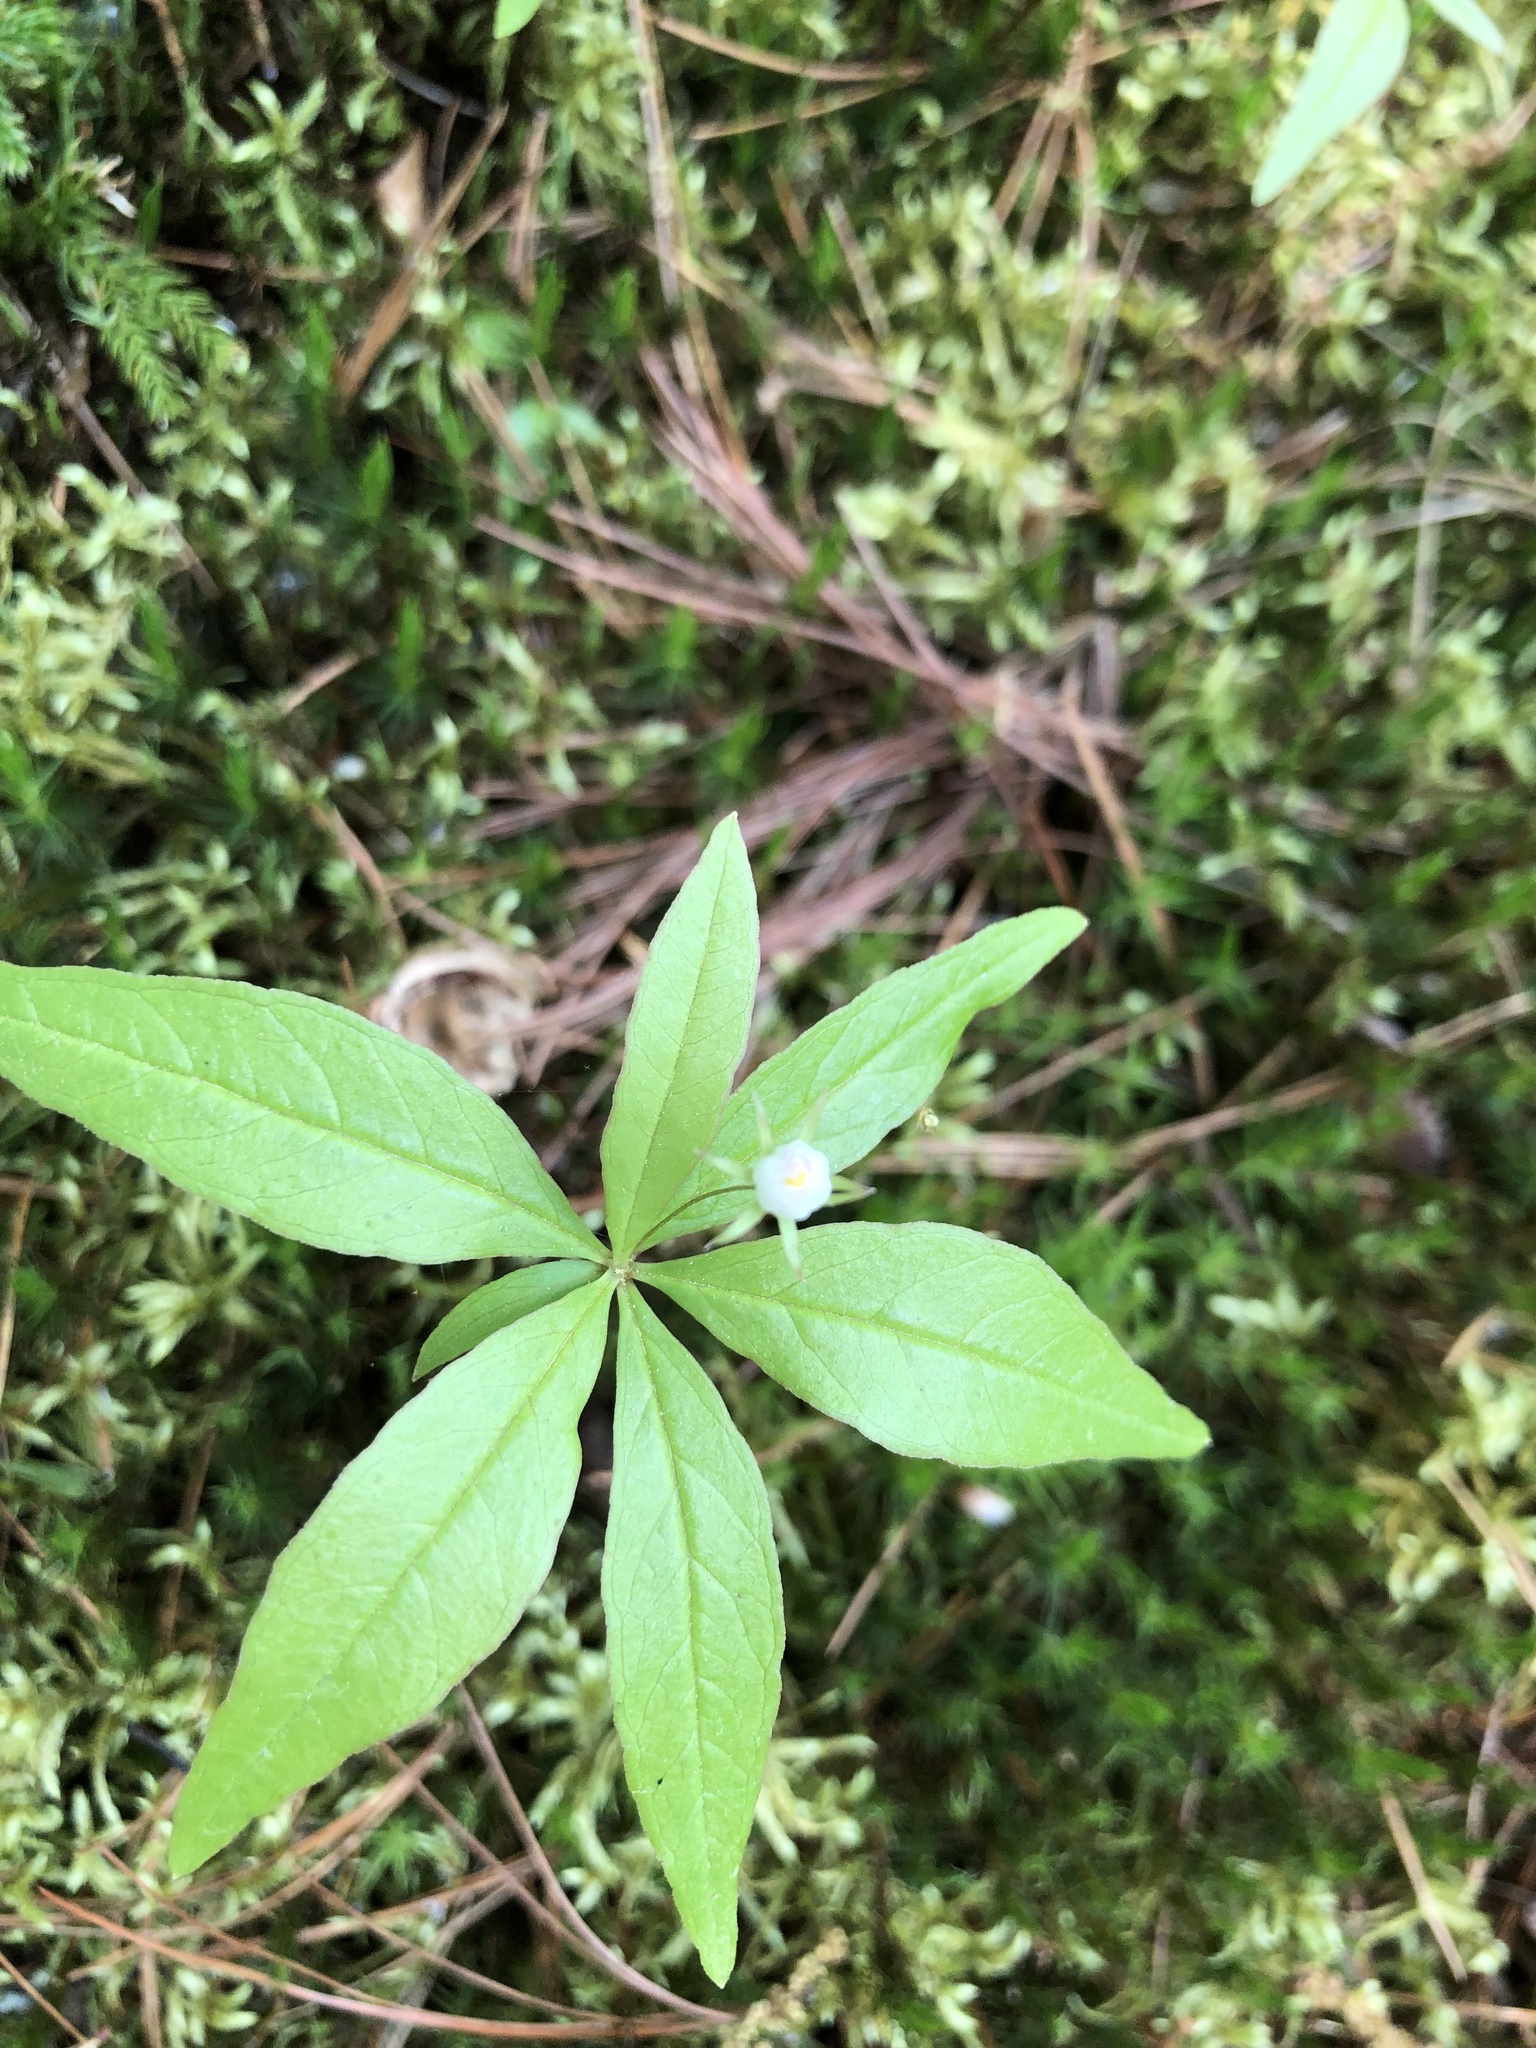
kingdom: Plantae
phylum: Tracheophyta
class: Magnoliopsida
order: Ericales
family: Primulaceae
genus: Lysimachia
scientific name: Lysimachia borealis
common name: American starflower
